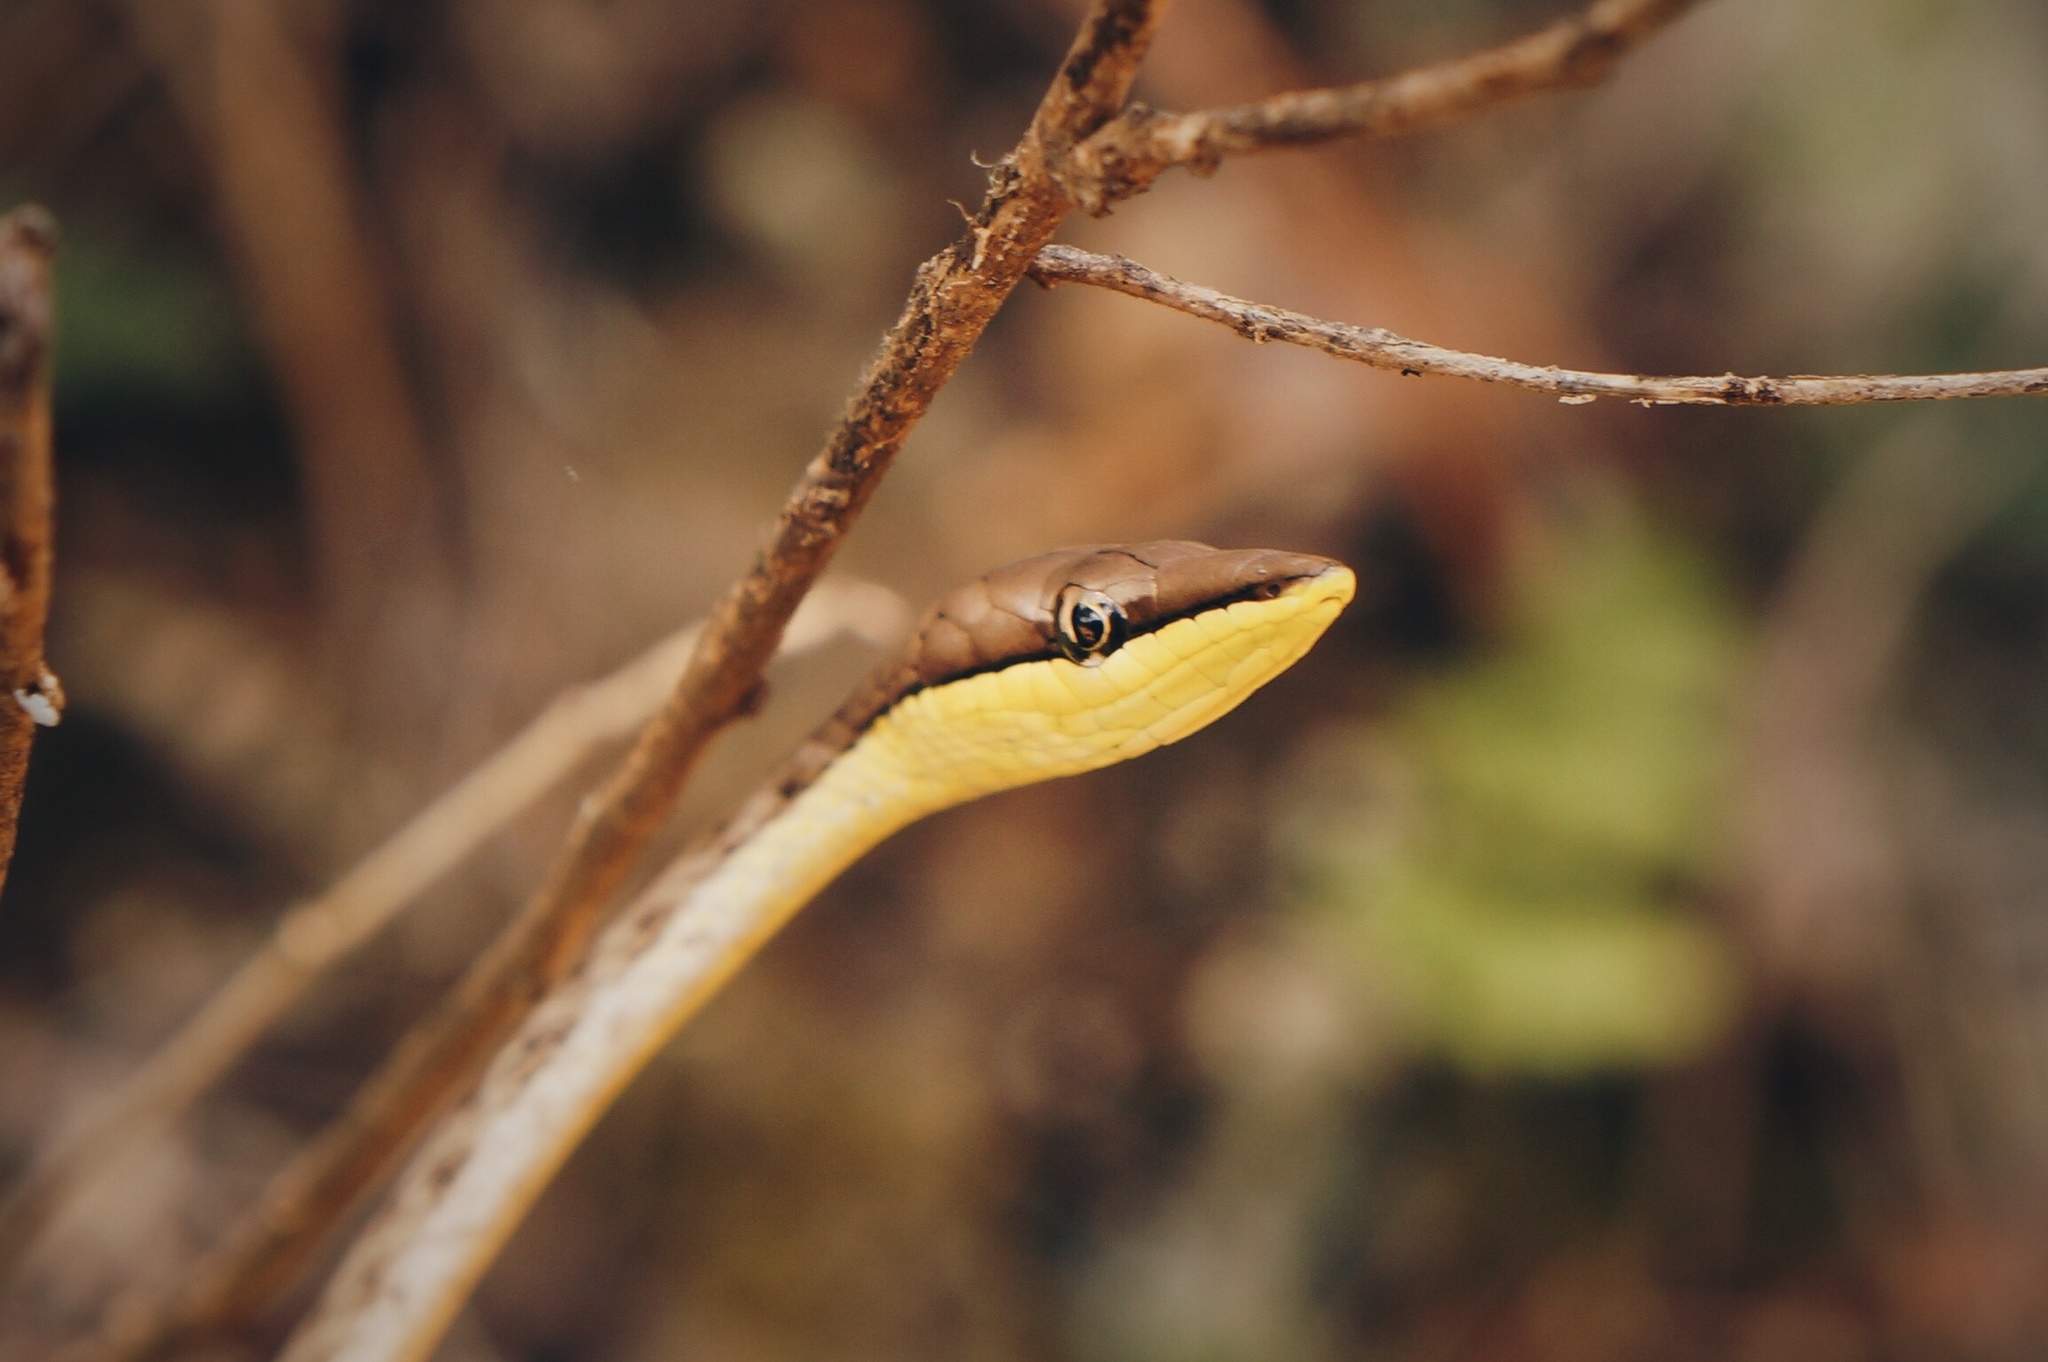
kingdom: Animalia
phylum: Chordata
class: Squamata
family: Colubridae
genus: Oxybelis
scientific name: Oxybelis potosiensis
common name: Gulf coast vine snake
